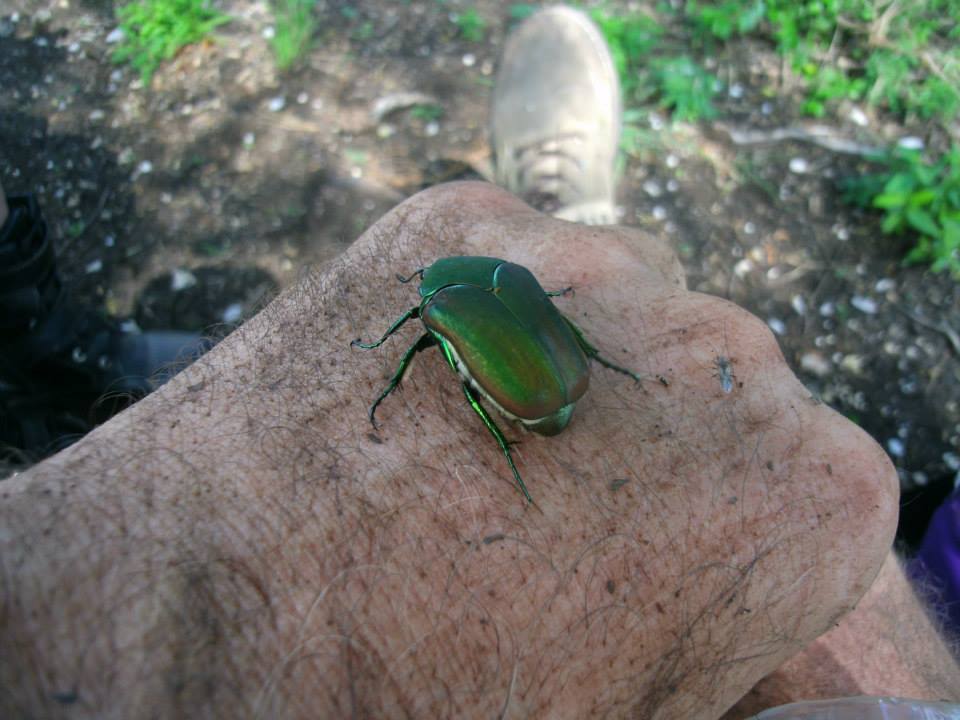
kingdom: Animalia
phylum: Arthropoda
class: Insecta
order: Coleoptera
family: Scarabaeidae
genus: Cotinis
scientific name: Cotinis mutabilis
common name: Figeater beetle
